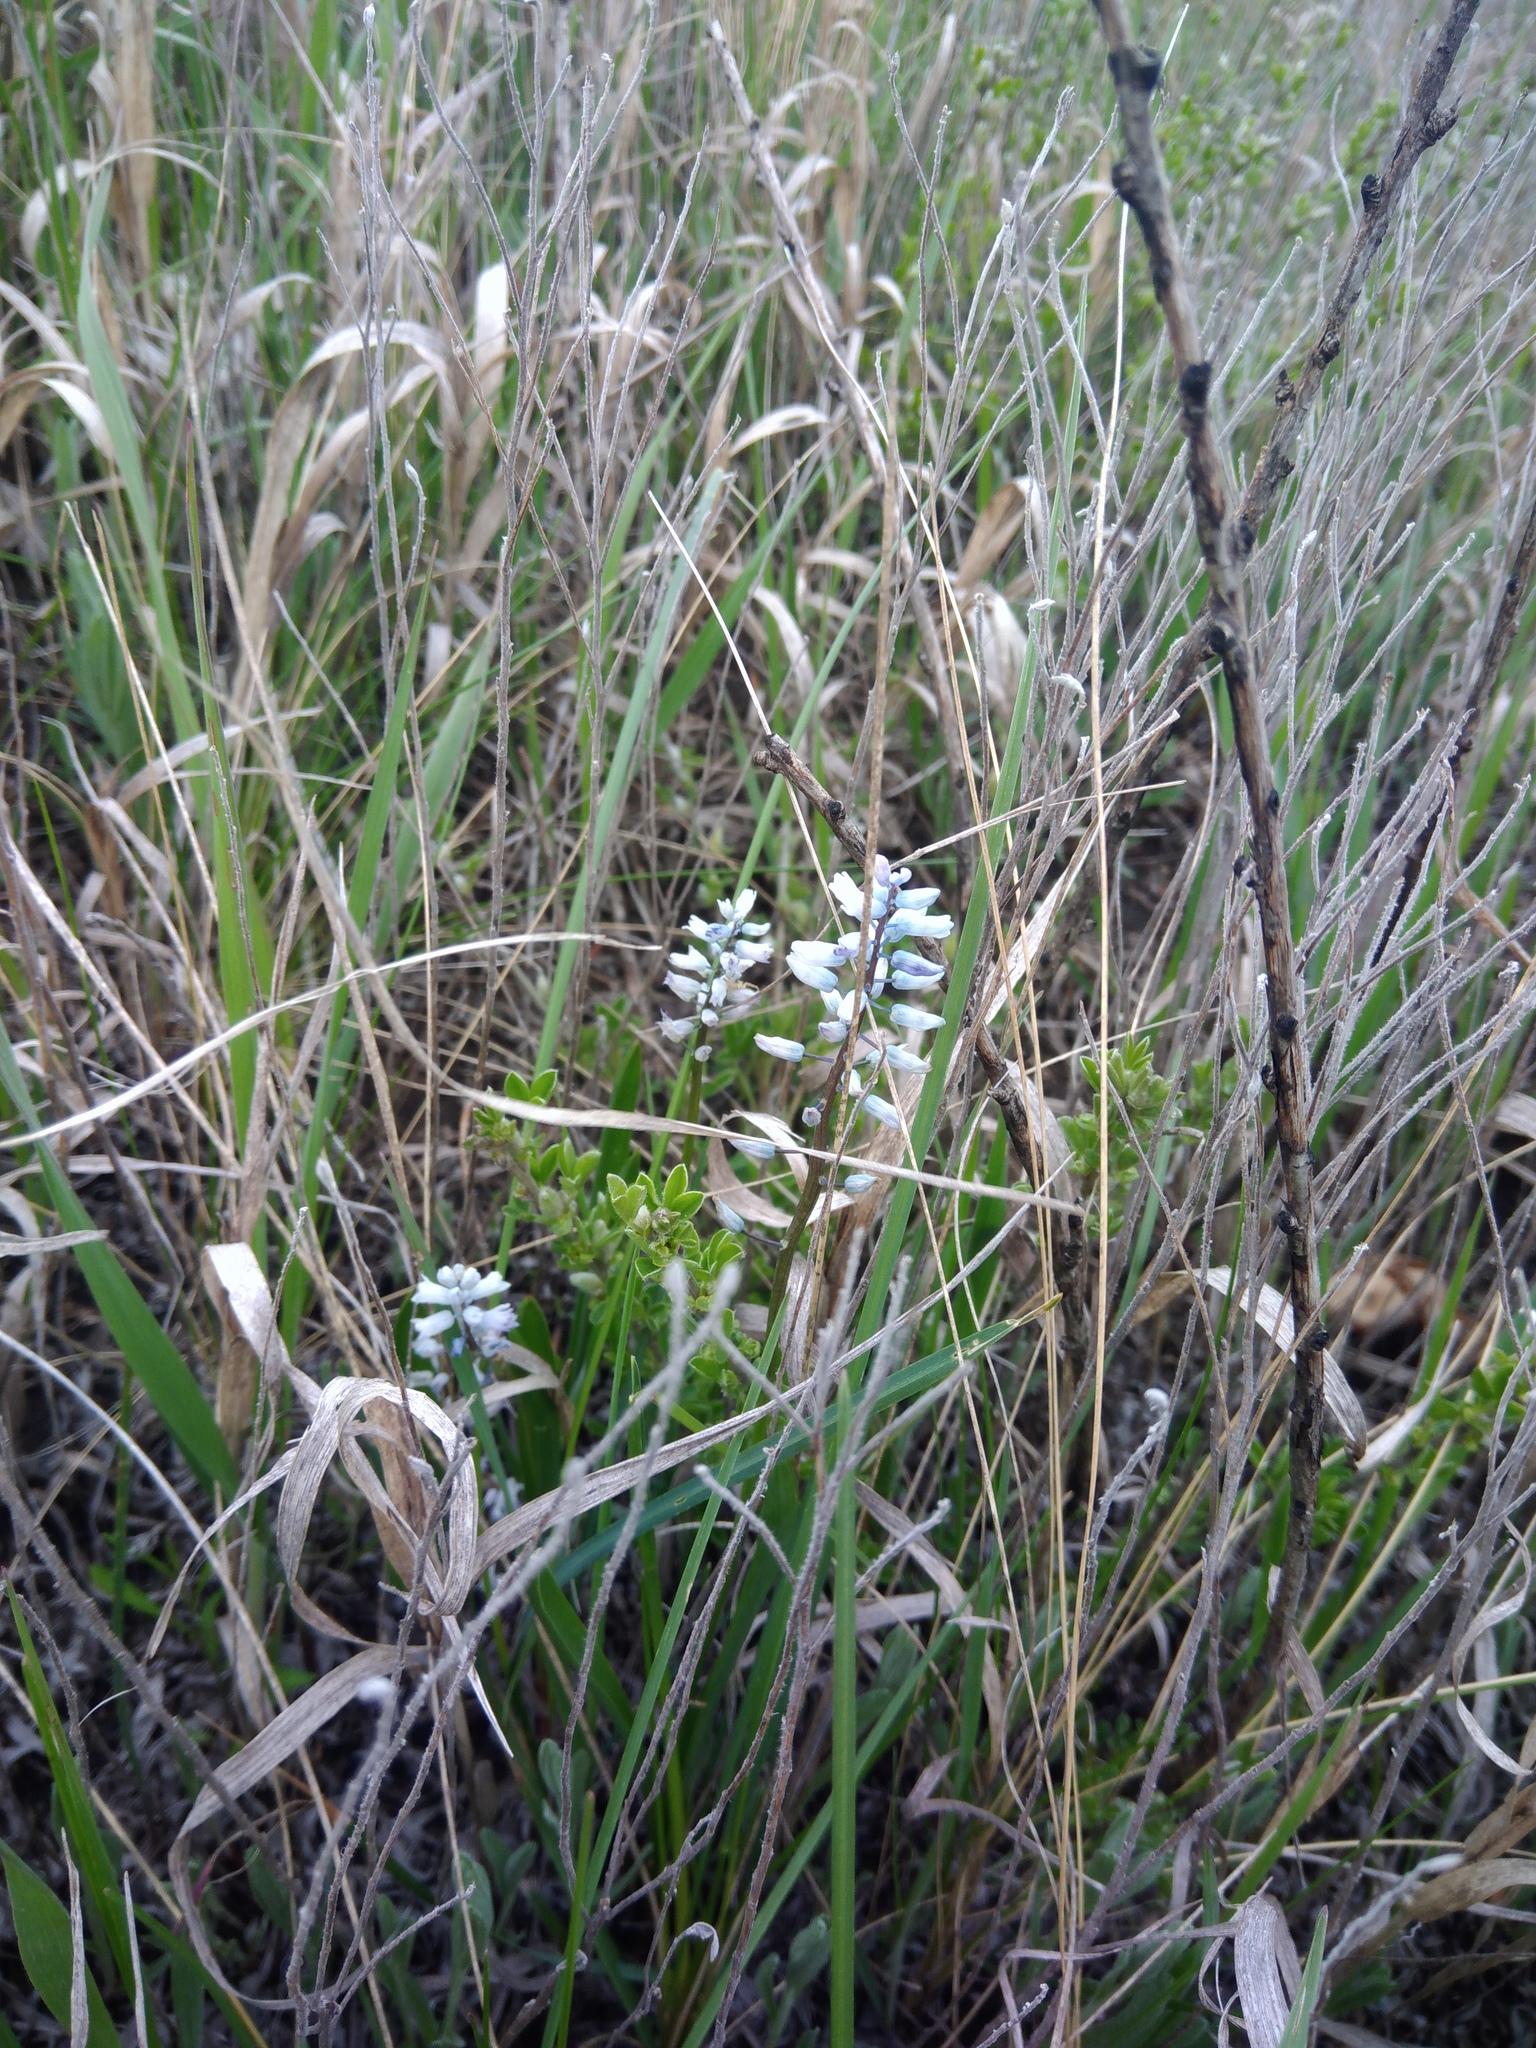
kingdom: Plantae
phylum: Tracheophyta
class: Liliopsida
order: Asparagales
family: Asparagaceae
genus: Hyacinthella
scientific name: Hyacinthella leucophaea
